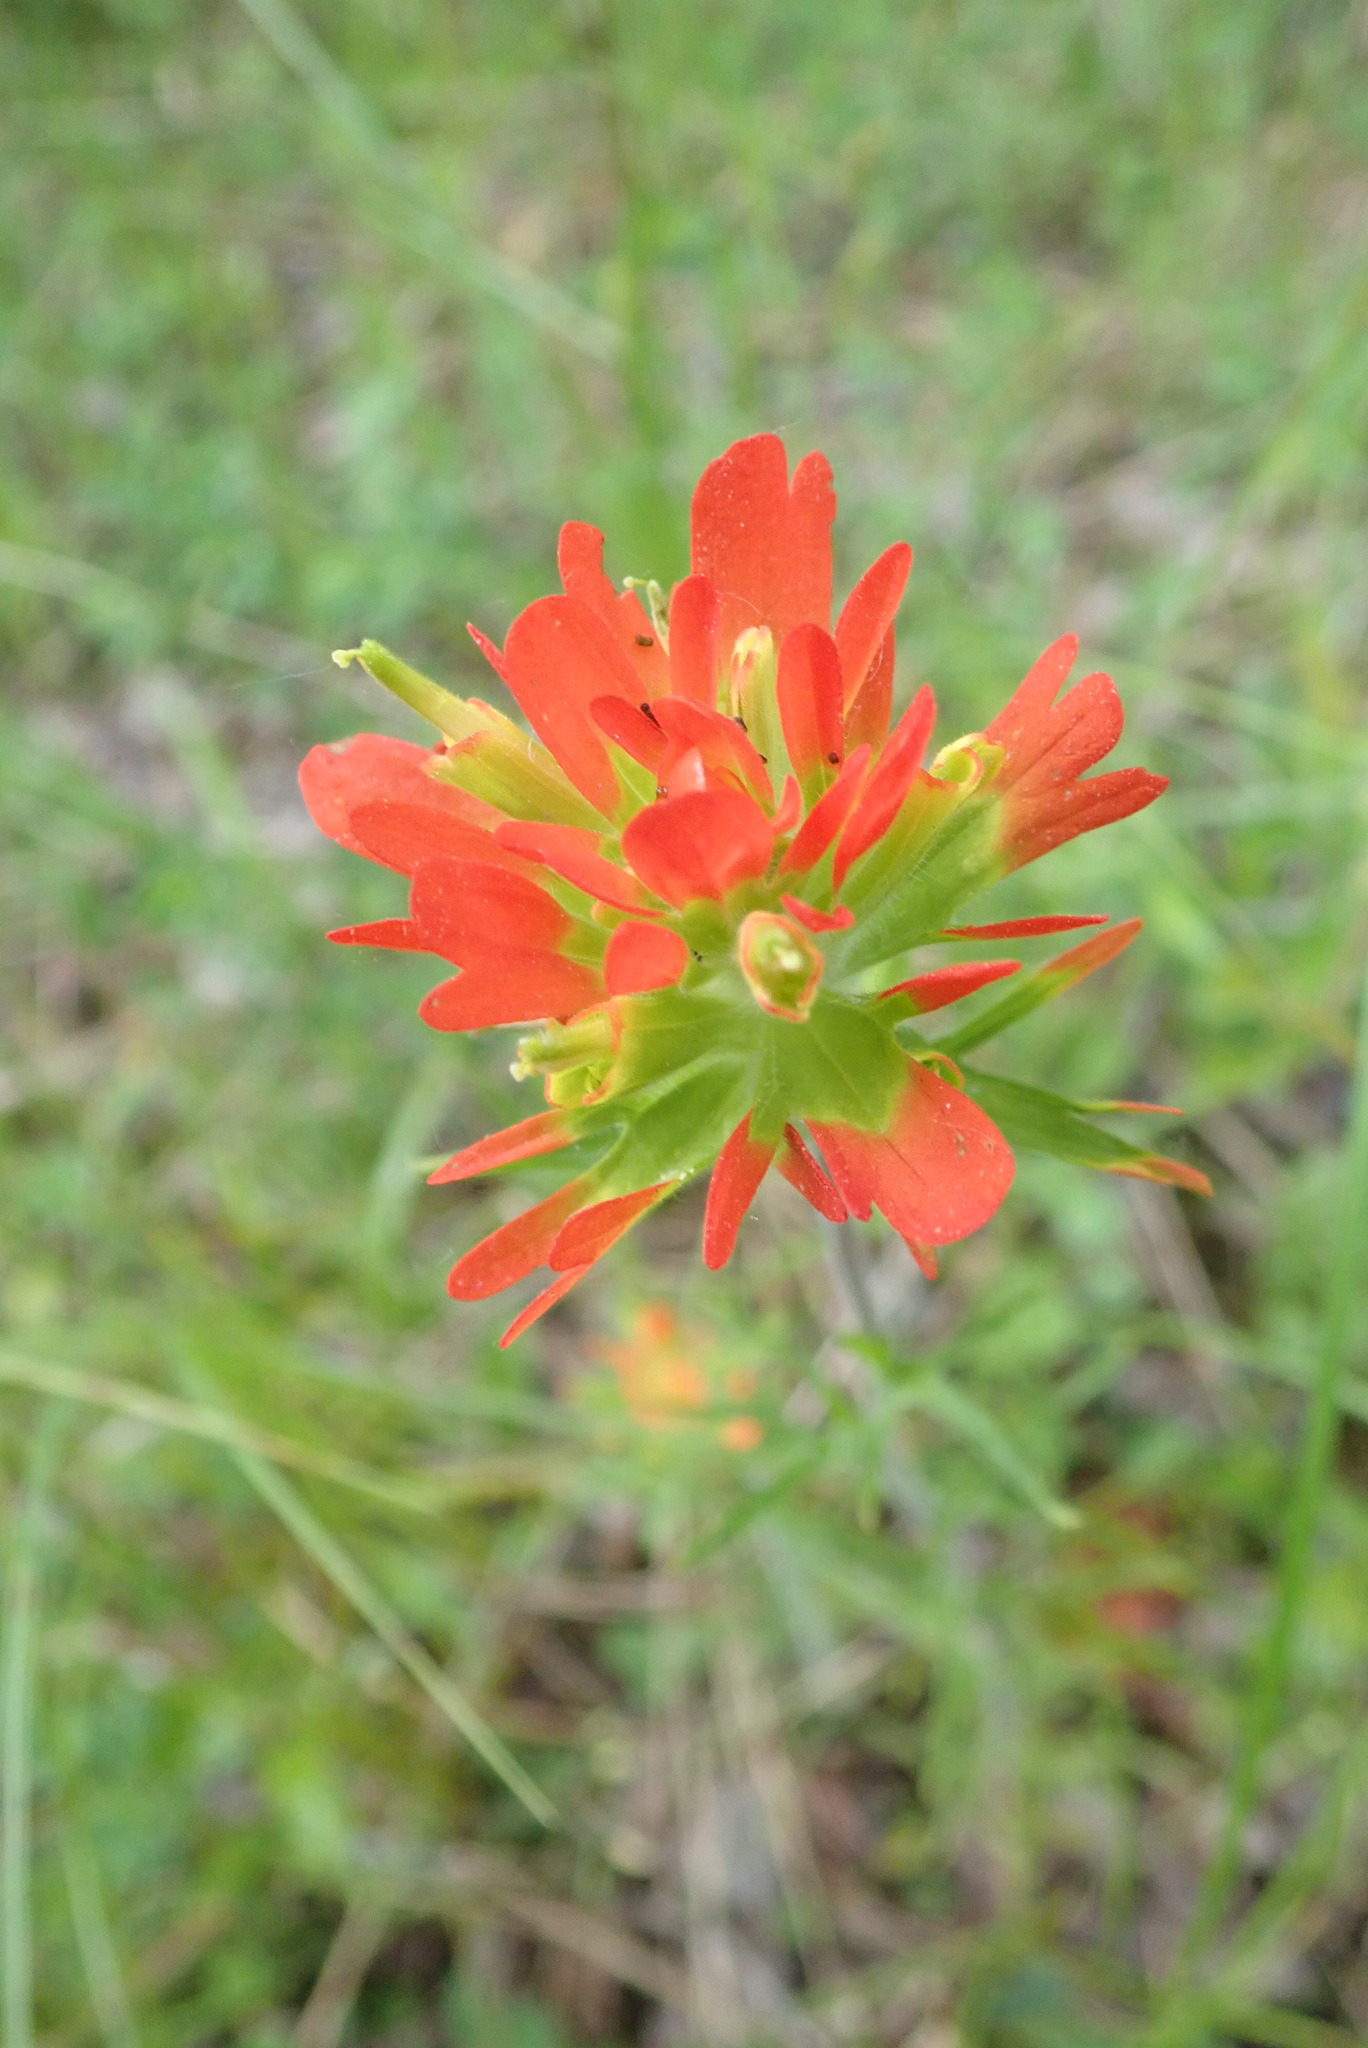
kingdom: Plantae
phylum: Tracheophyta
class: Magnoliopsida
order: Lamiales
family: Orobanchaceae
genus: Castilleja
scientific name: Castilleja coccinea
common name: Scarlet paintbrush
